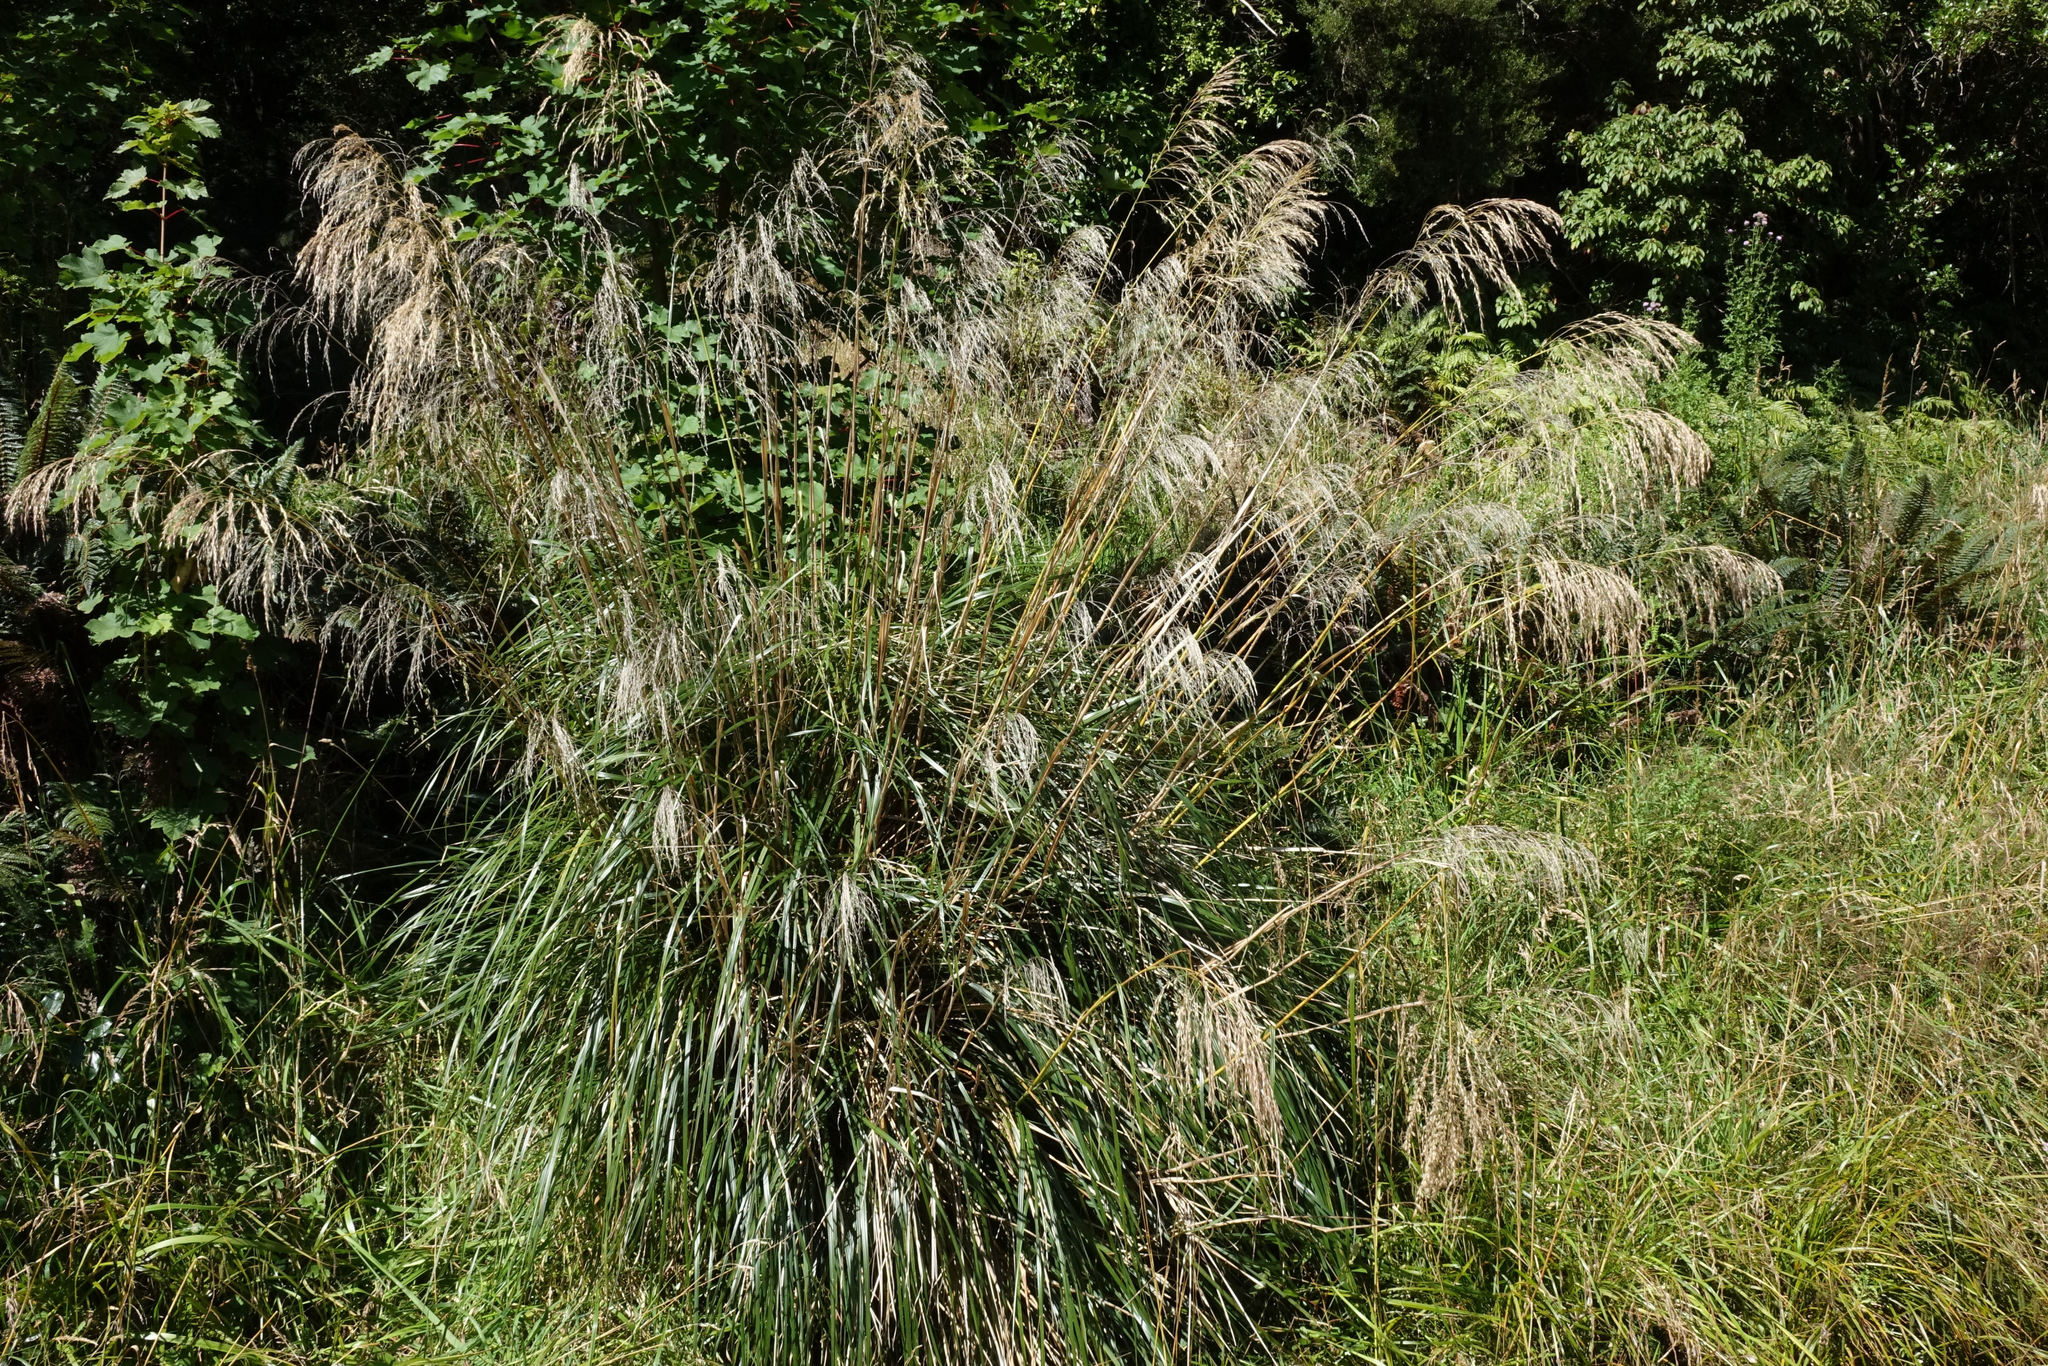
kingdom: Plantae
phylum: Tracheophyta
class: Liliopsida
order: Poales
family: Poaceae
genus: Chionochloa
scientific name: Chionochloa conspicua
